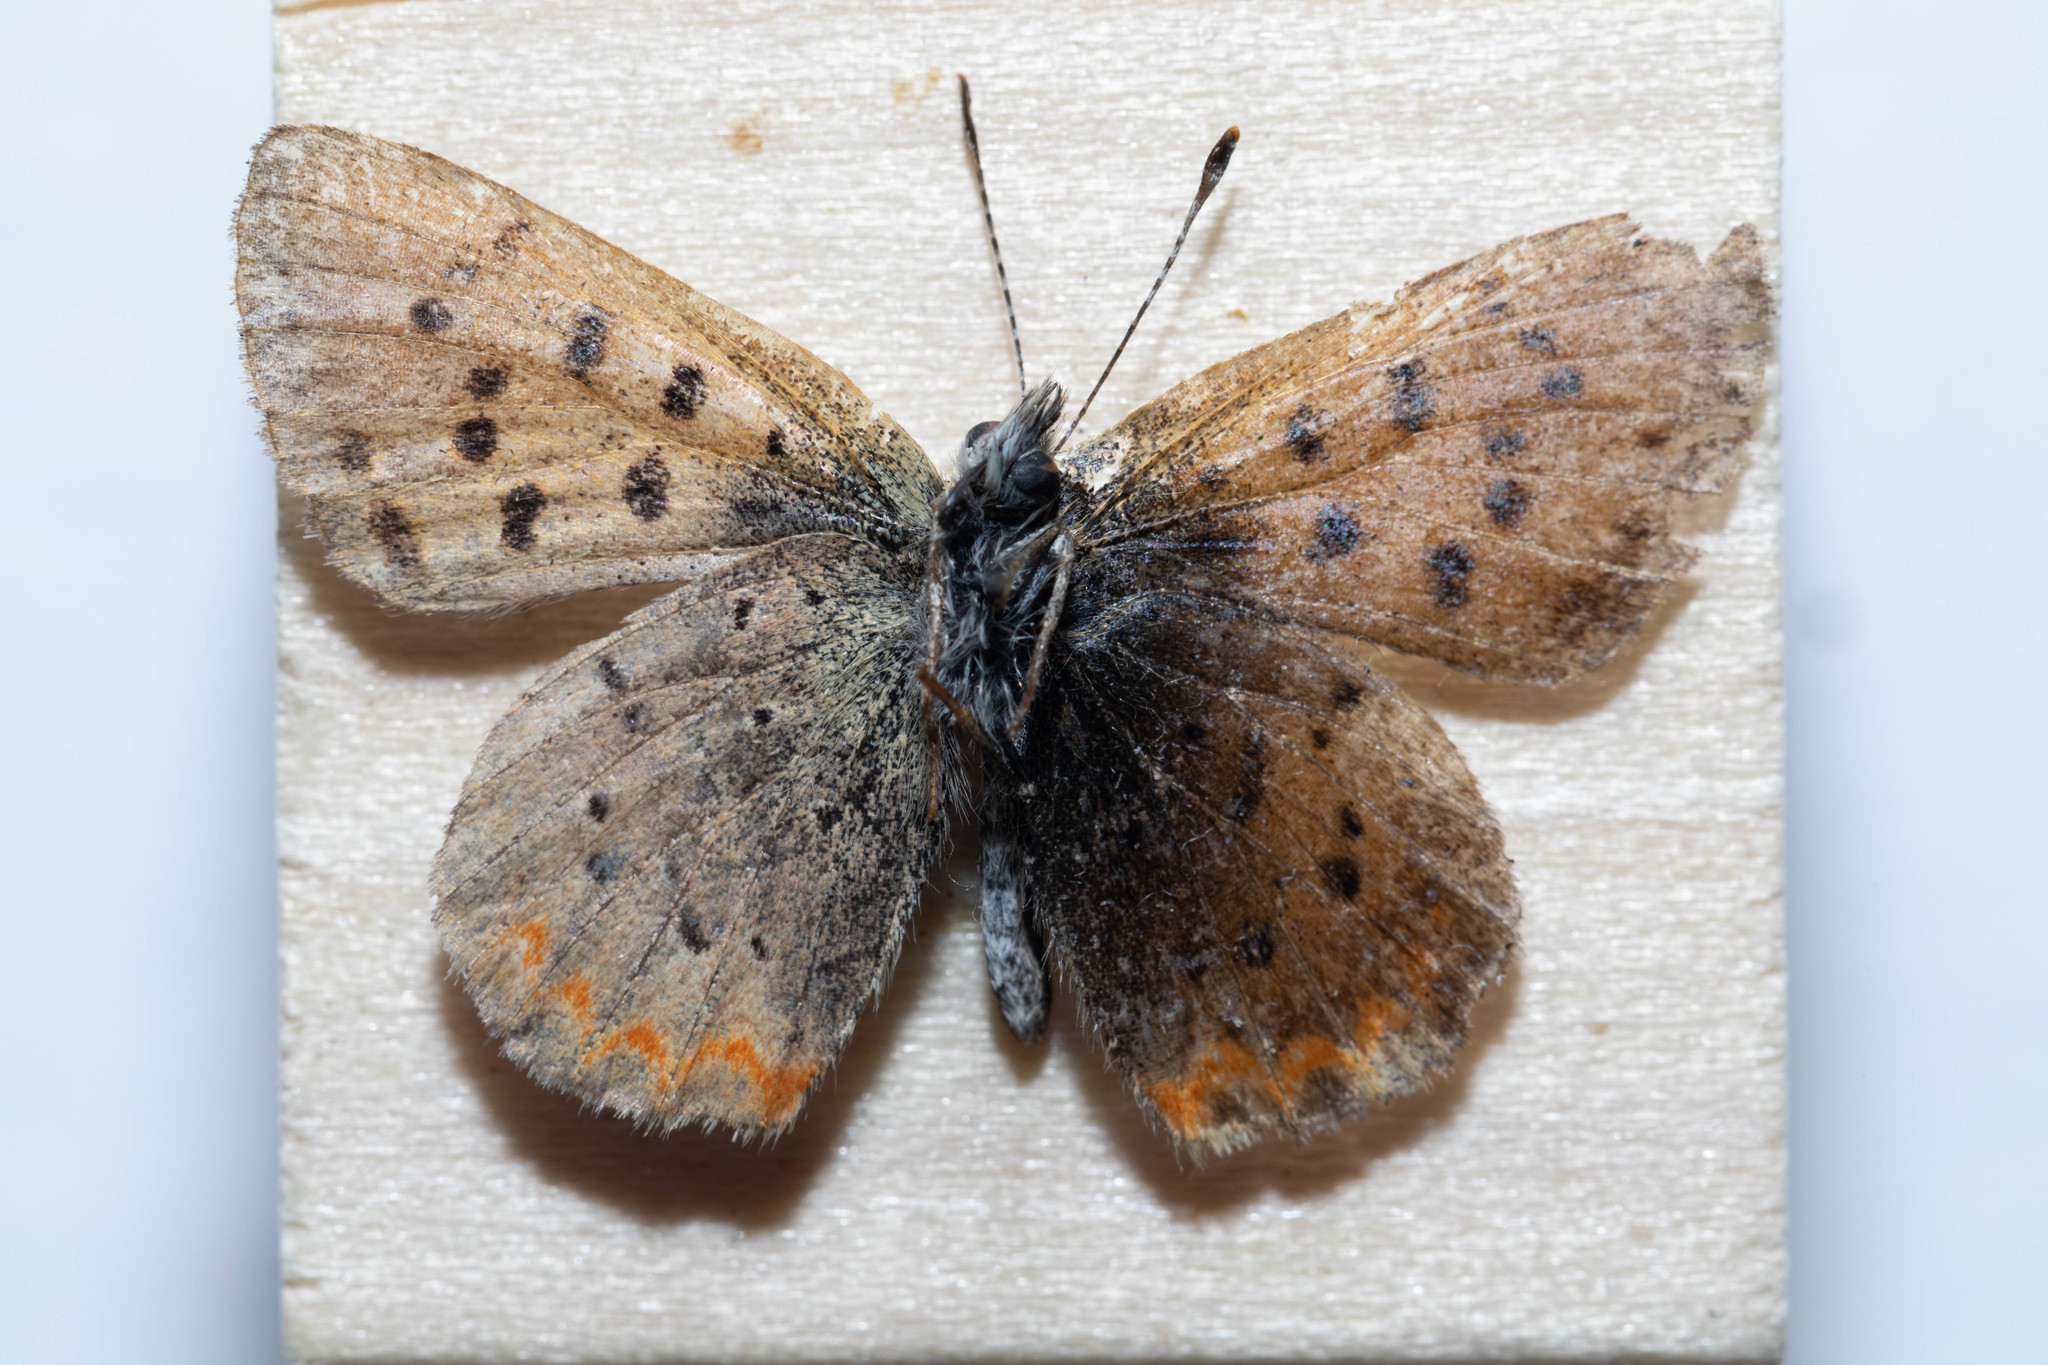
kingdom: Animalia
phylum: Arthropoda
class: Insecta
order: Lepidoptera
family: Lycaenidae
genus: Tharsalea
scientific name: Tharsalea helloides
